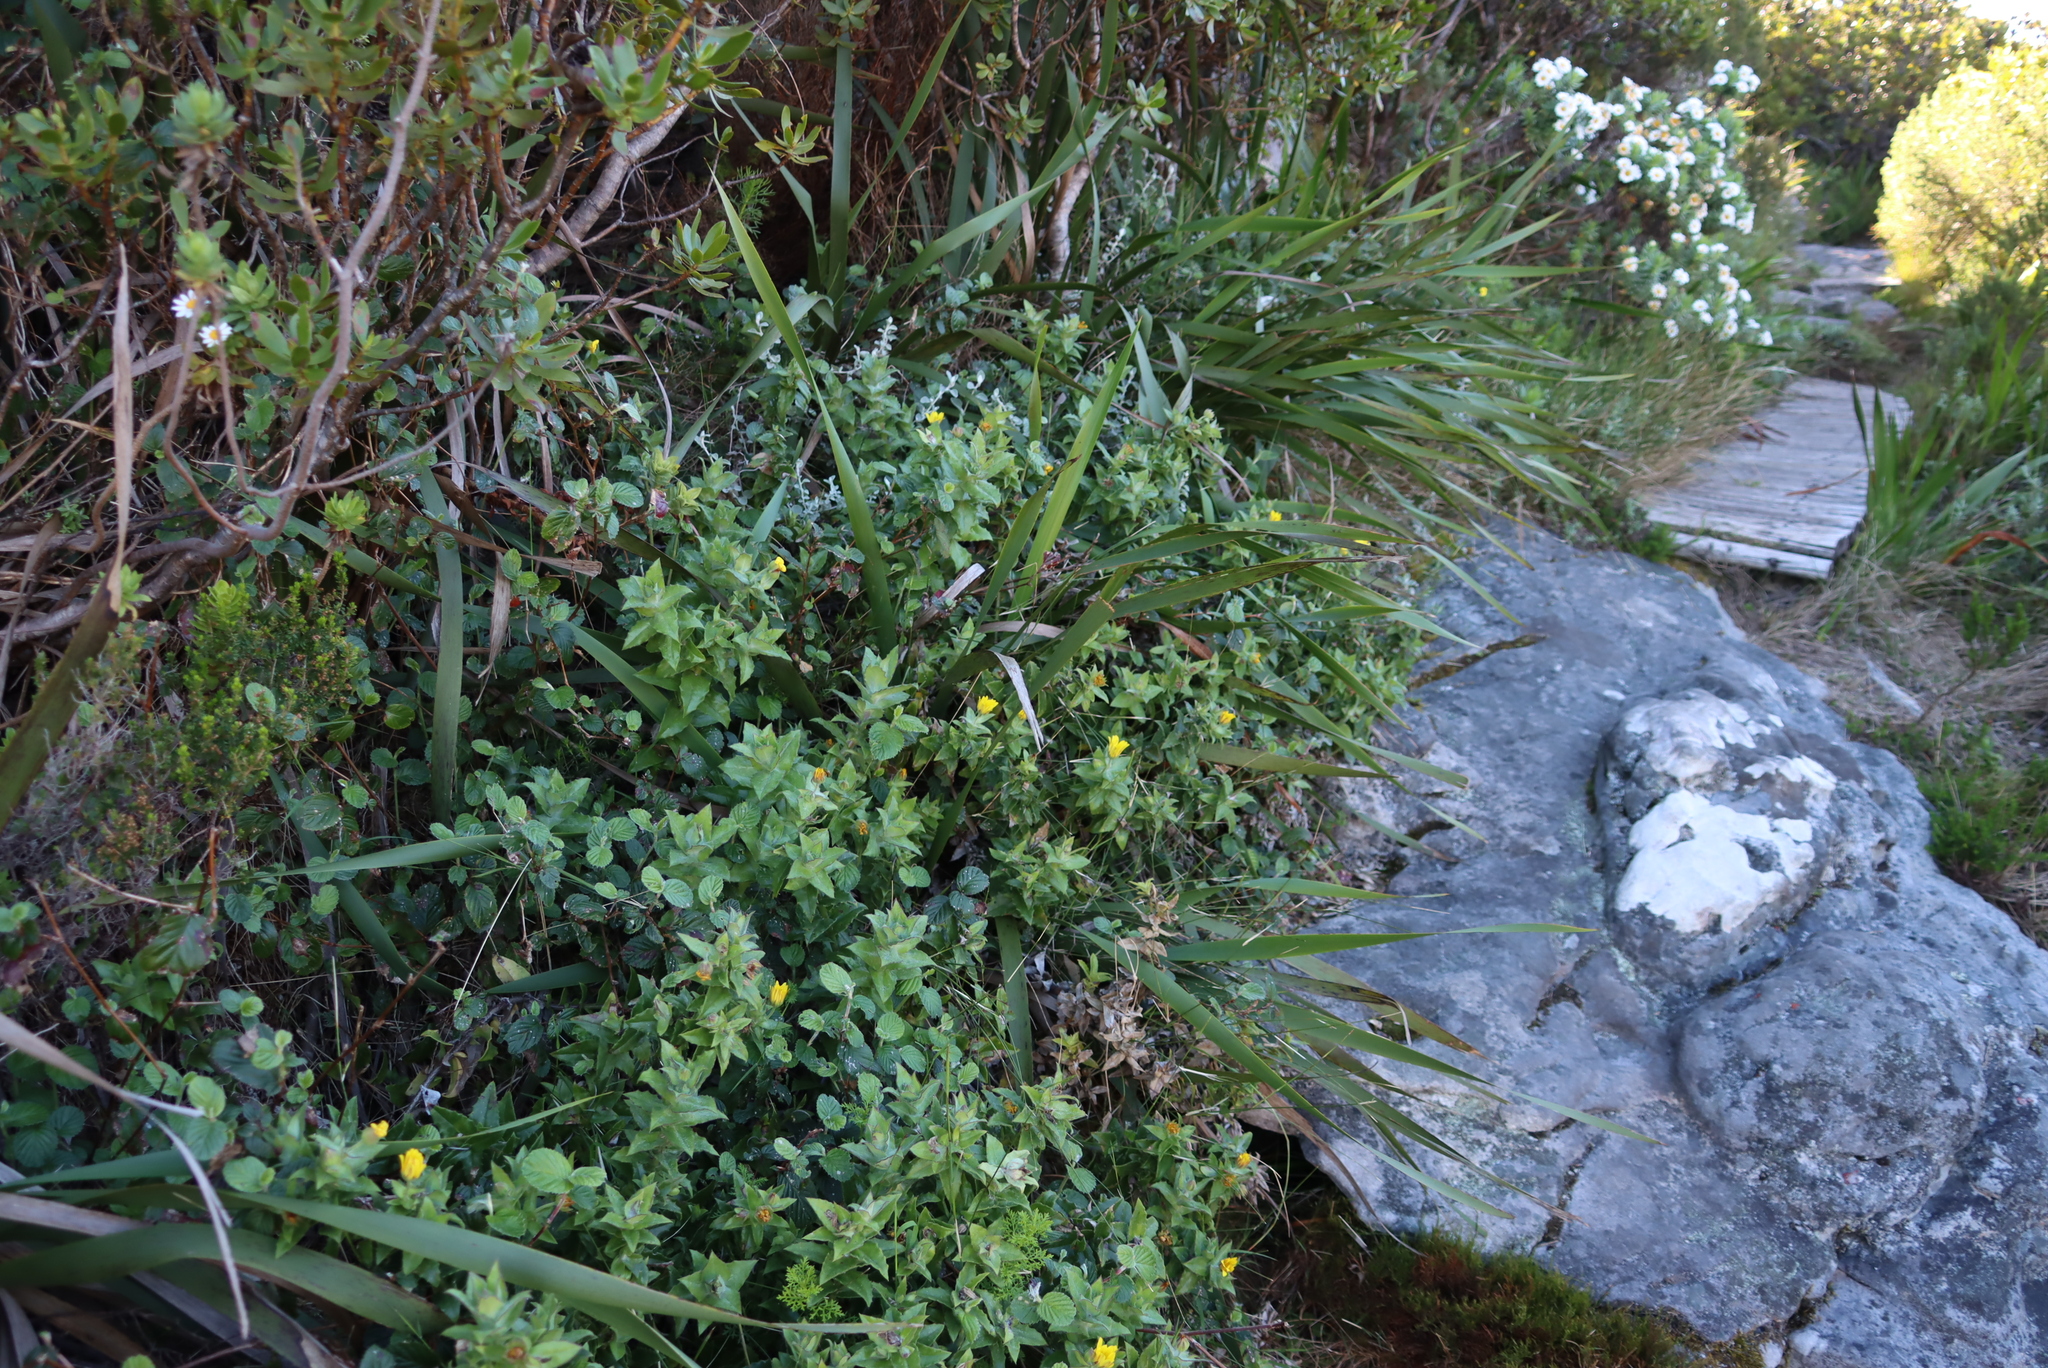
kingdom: Plantae
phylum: Tracheophyta
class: Magnoliopsida
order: Asterales
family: Asteraceae
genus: Osteospermum
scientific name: Osteospermum ilicifolium
